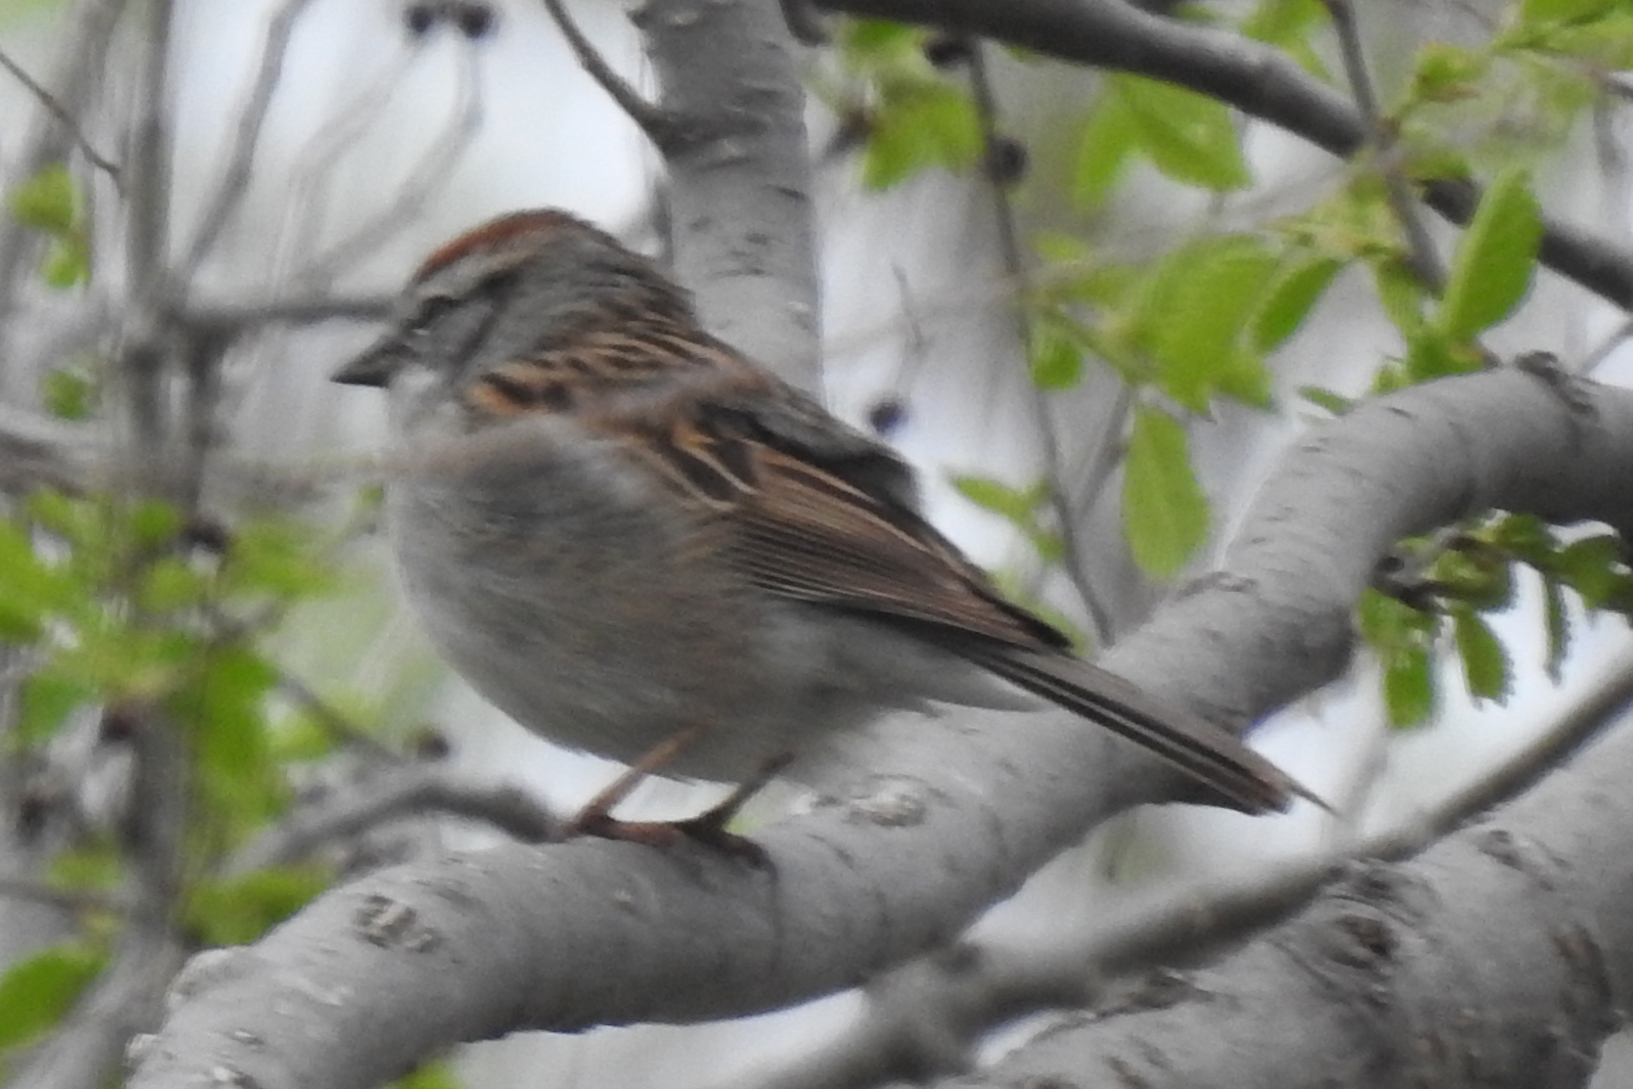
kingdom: Animalia
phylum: Chordata
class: Aves
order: Passeriformes
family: Passerellidae
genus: Spizella
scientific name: Spizella passerina
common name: Chipping sparrow
